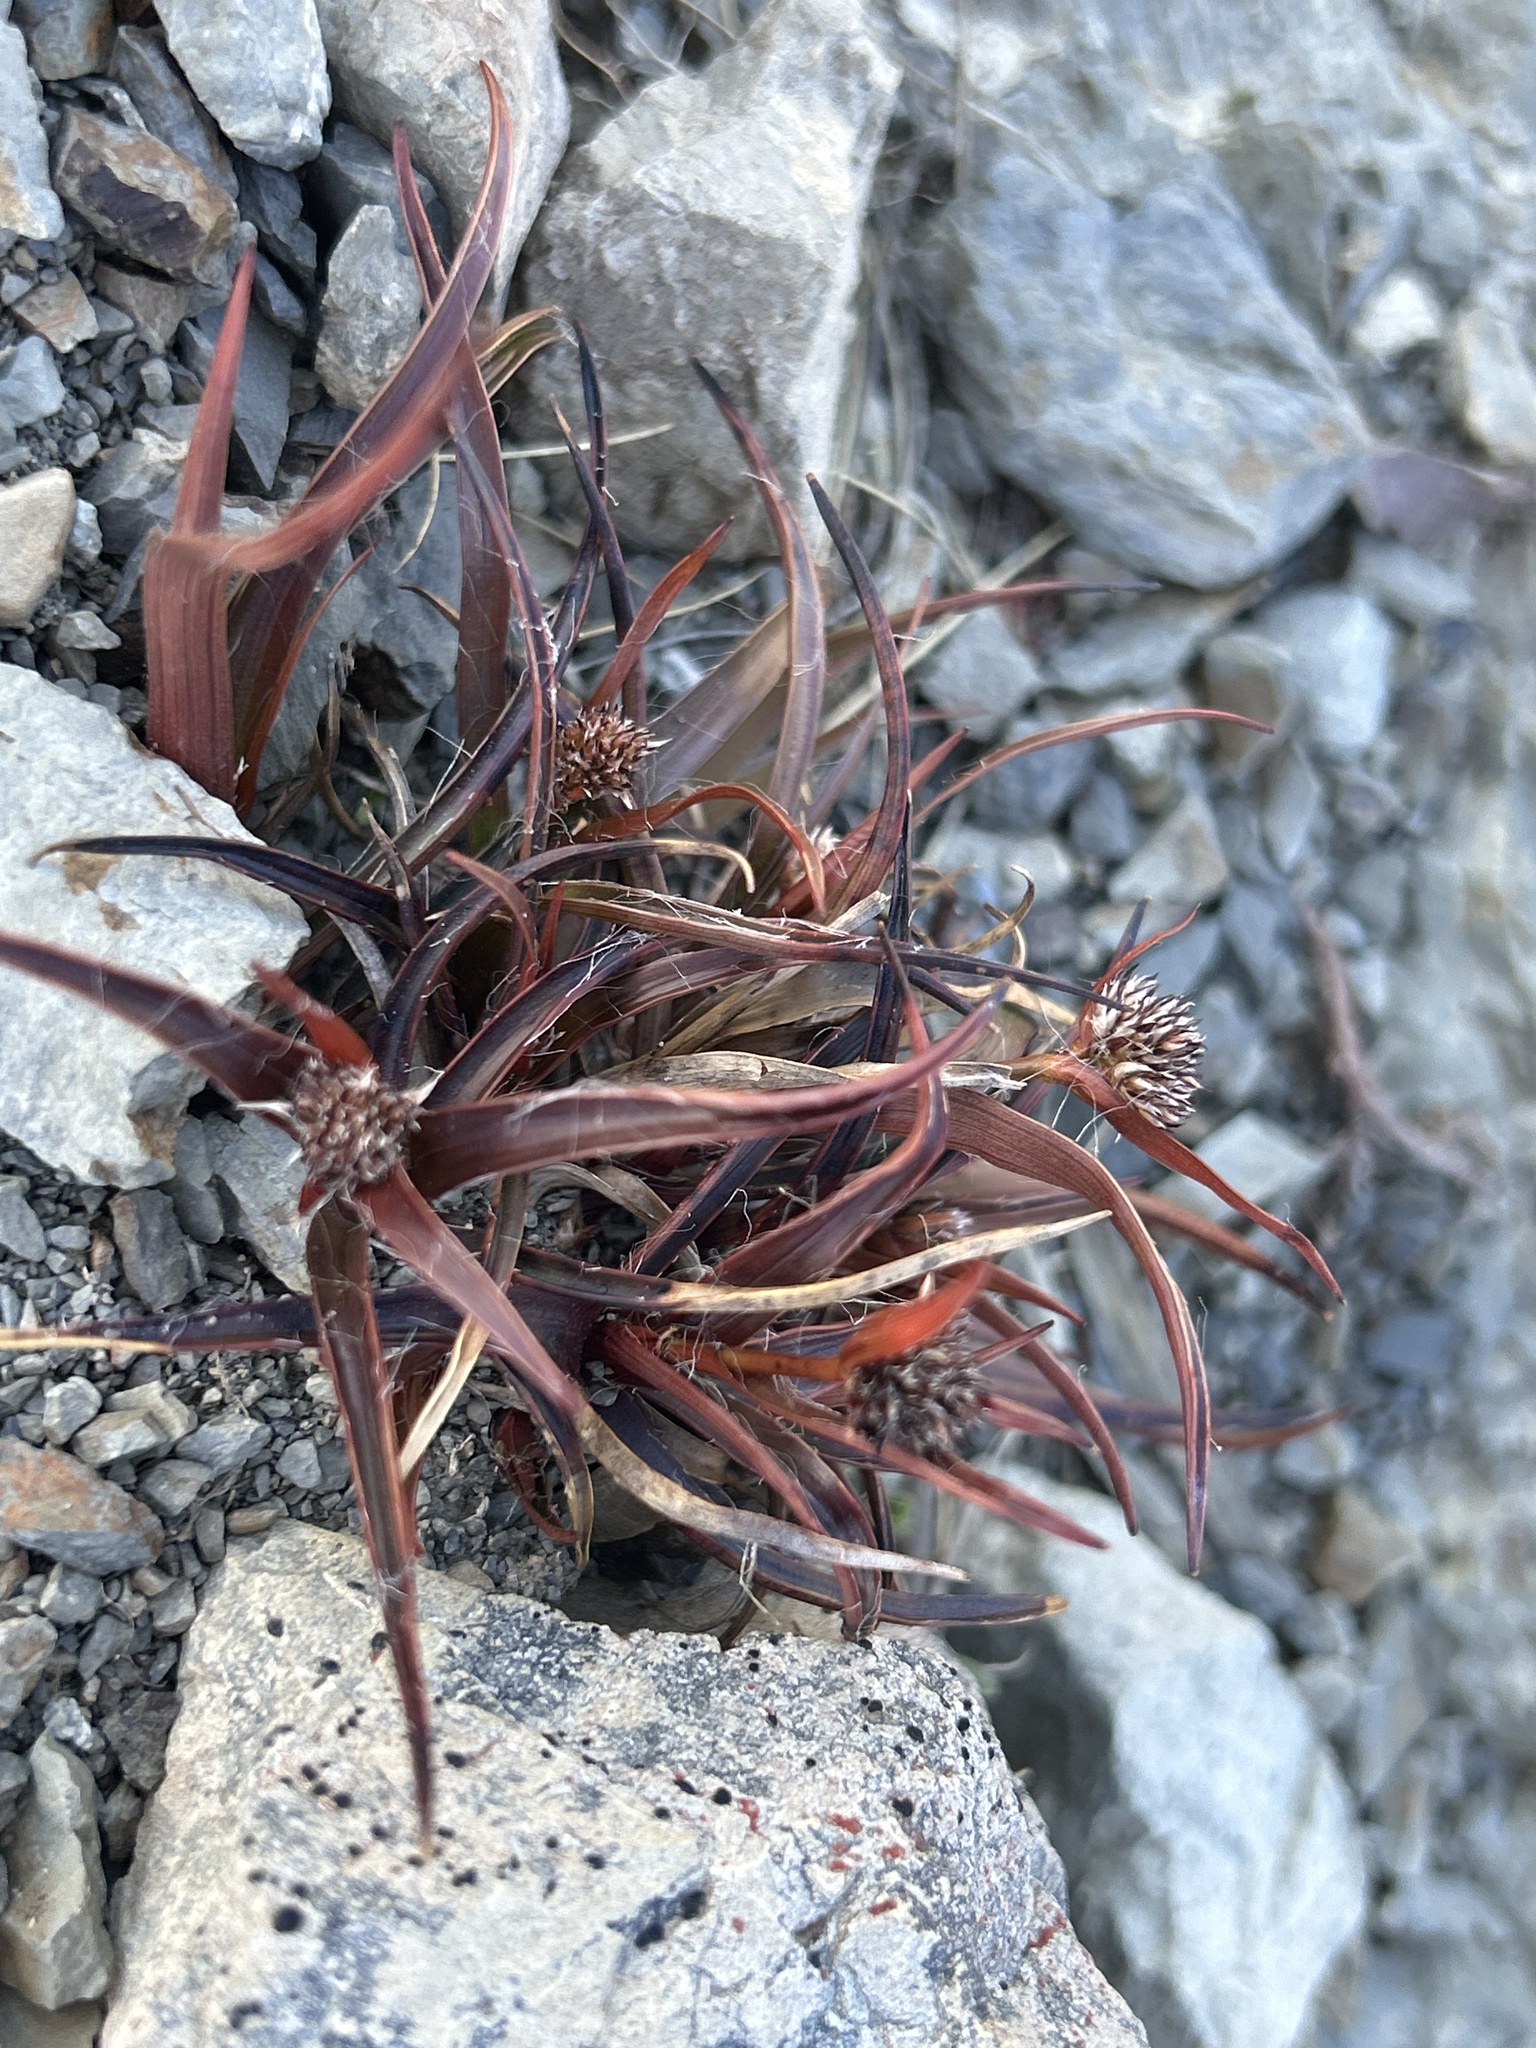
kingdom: Plantae
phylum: Tracheophyta
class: Liliopsida
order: Poales
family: Juncaceae
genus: Luzula
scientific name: Luzula rufa
